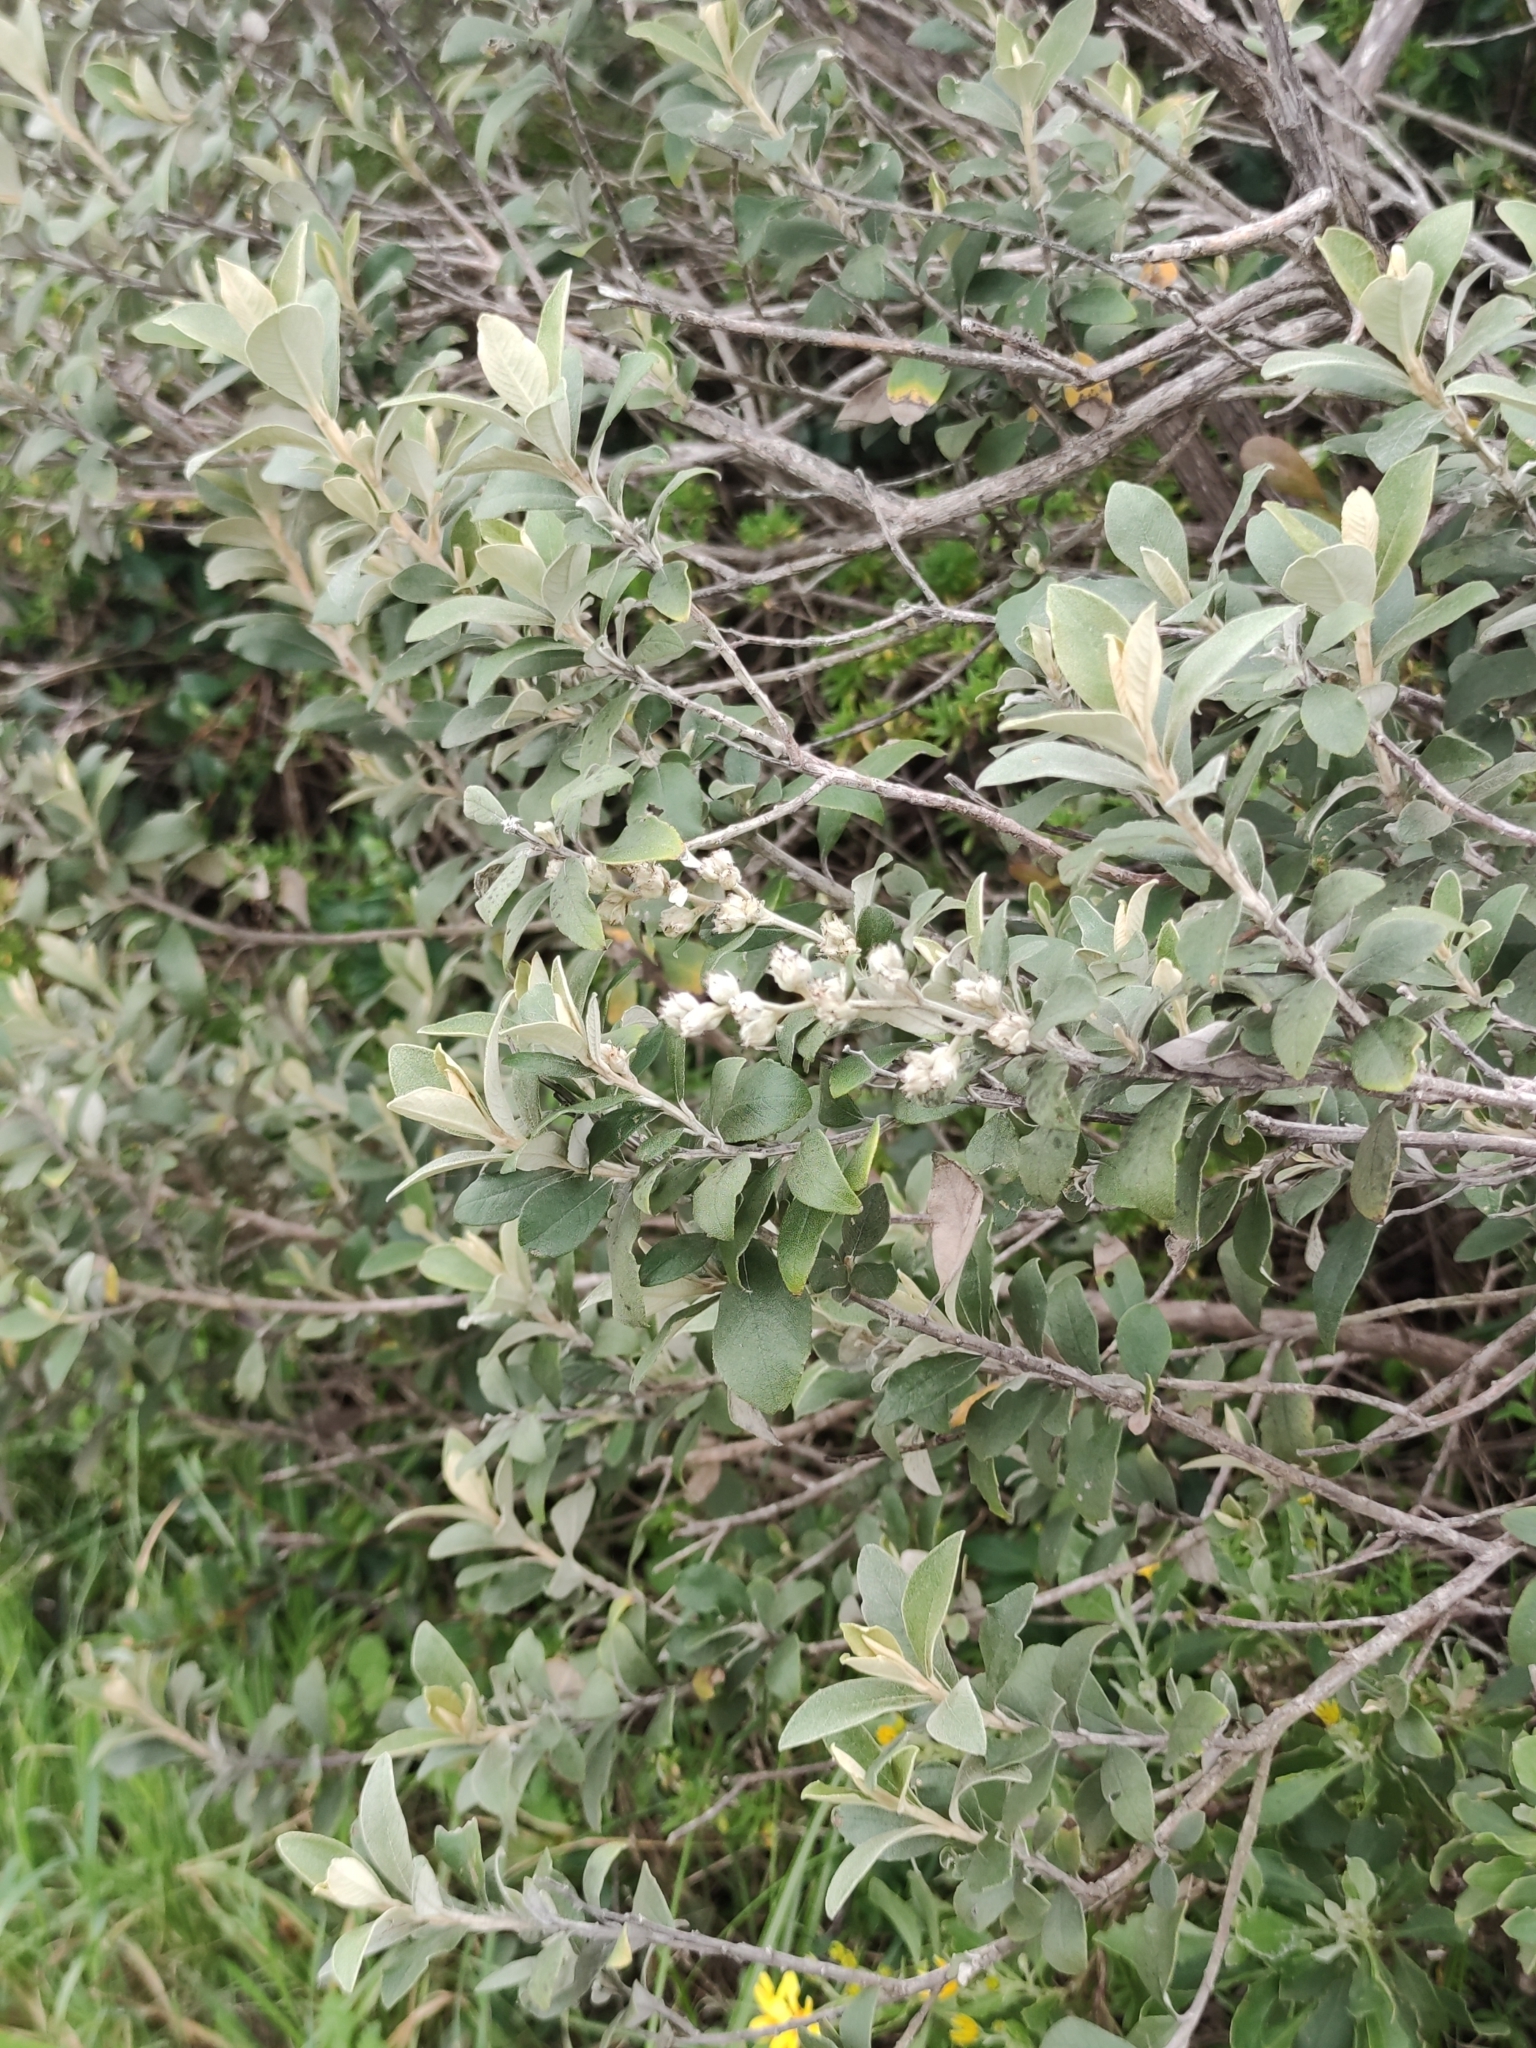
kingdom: Plantae
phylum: Tracheophyta
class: Magnoliopsida
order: Asterales
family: Asteraceae
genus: Tarchonanthus
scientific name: Tarchonanthus littoralis
